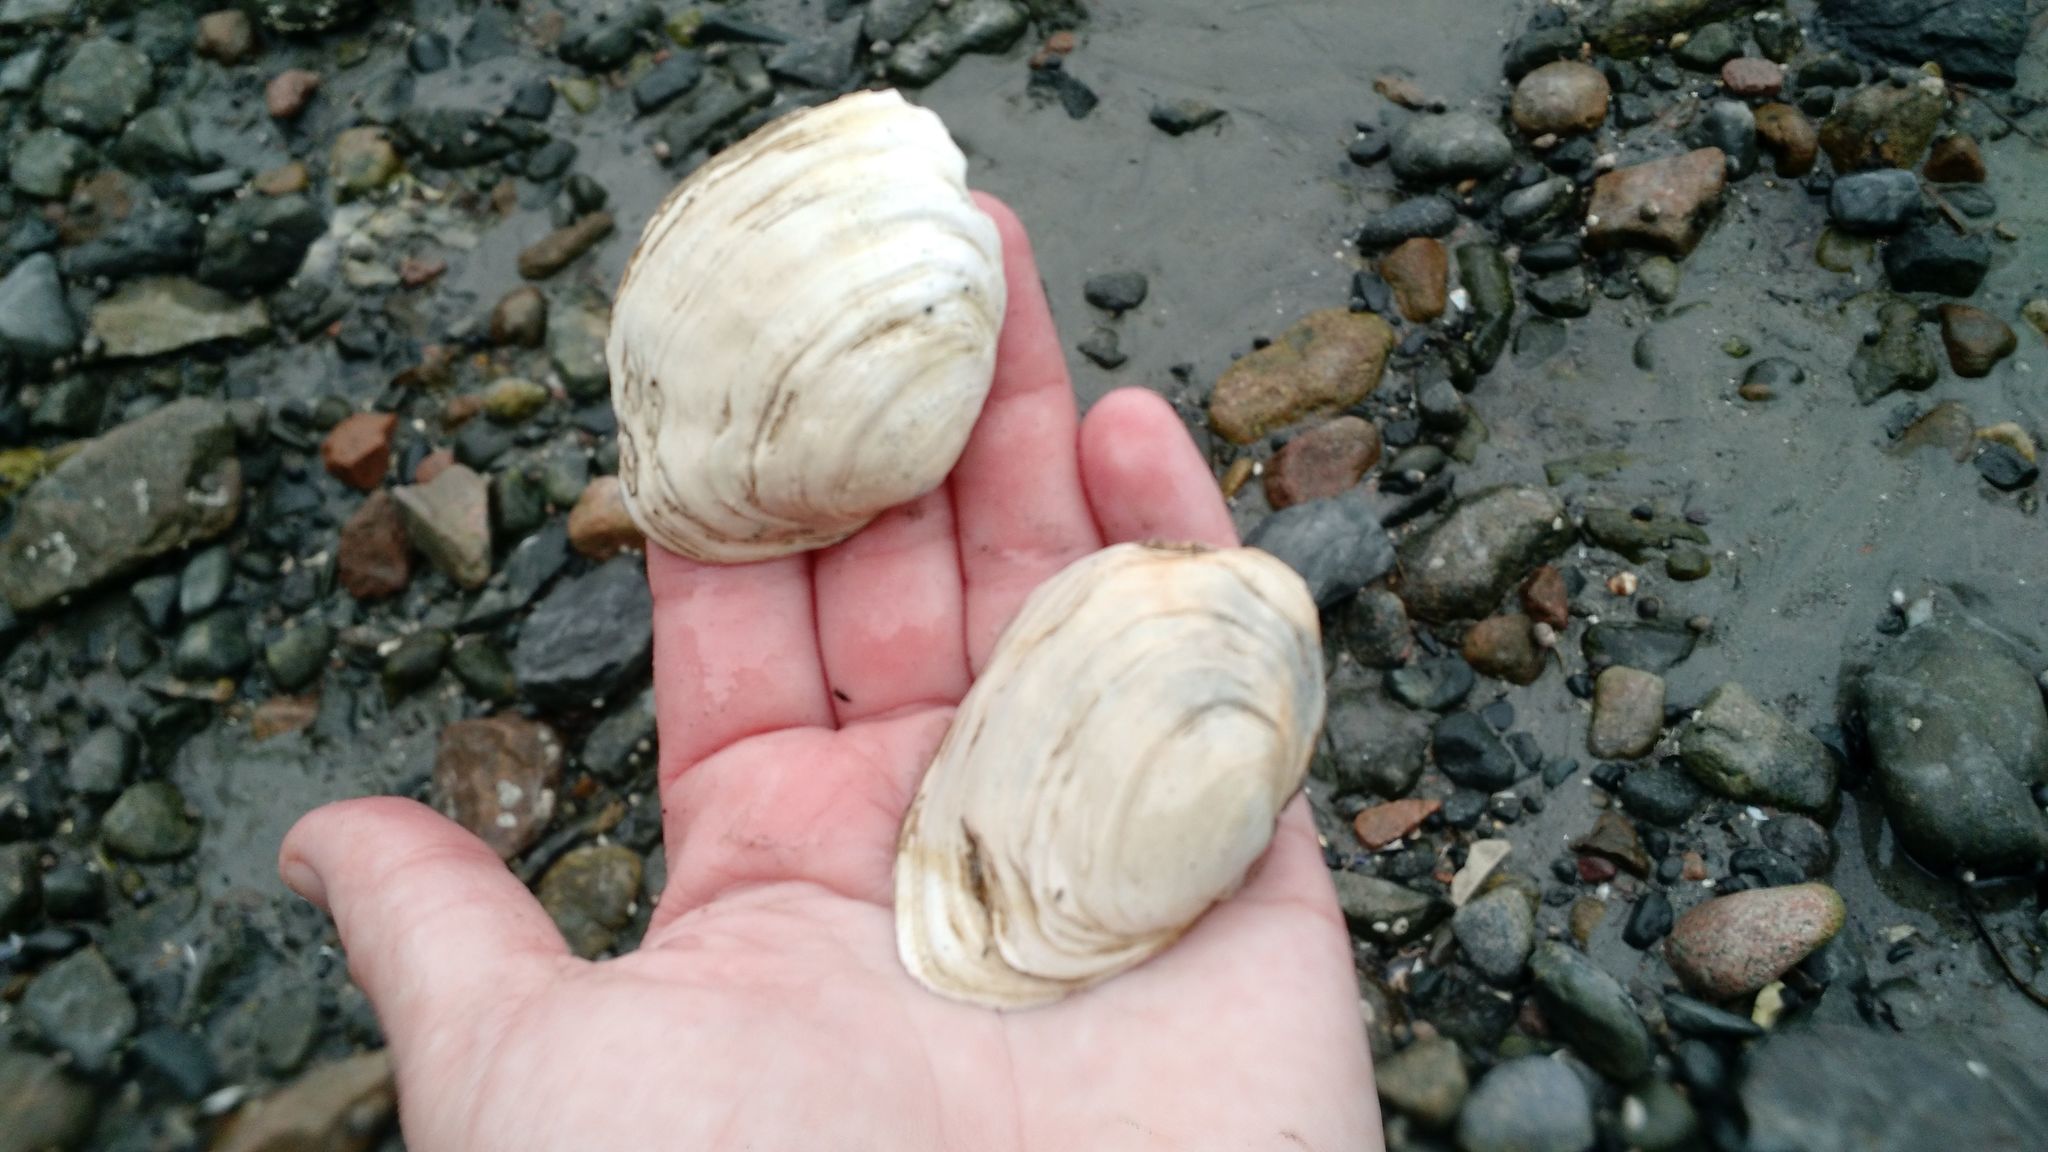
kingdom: Animalia
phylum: Mollusca
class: Bivalvia
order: Myida
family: Myidae
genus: Mya
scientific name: Mya arenaria
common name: Soft-shelled clam
